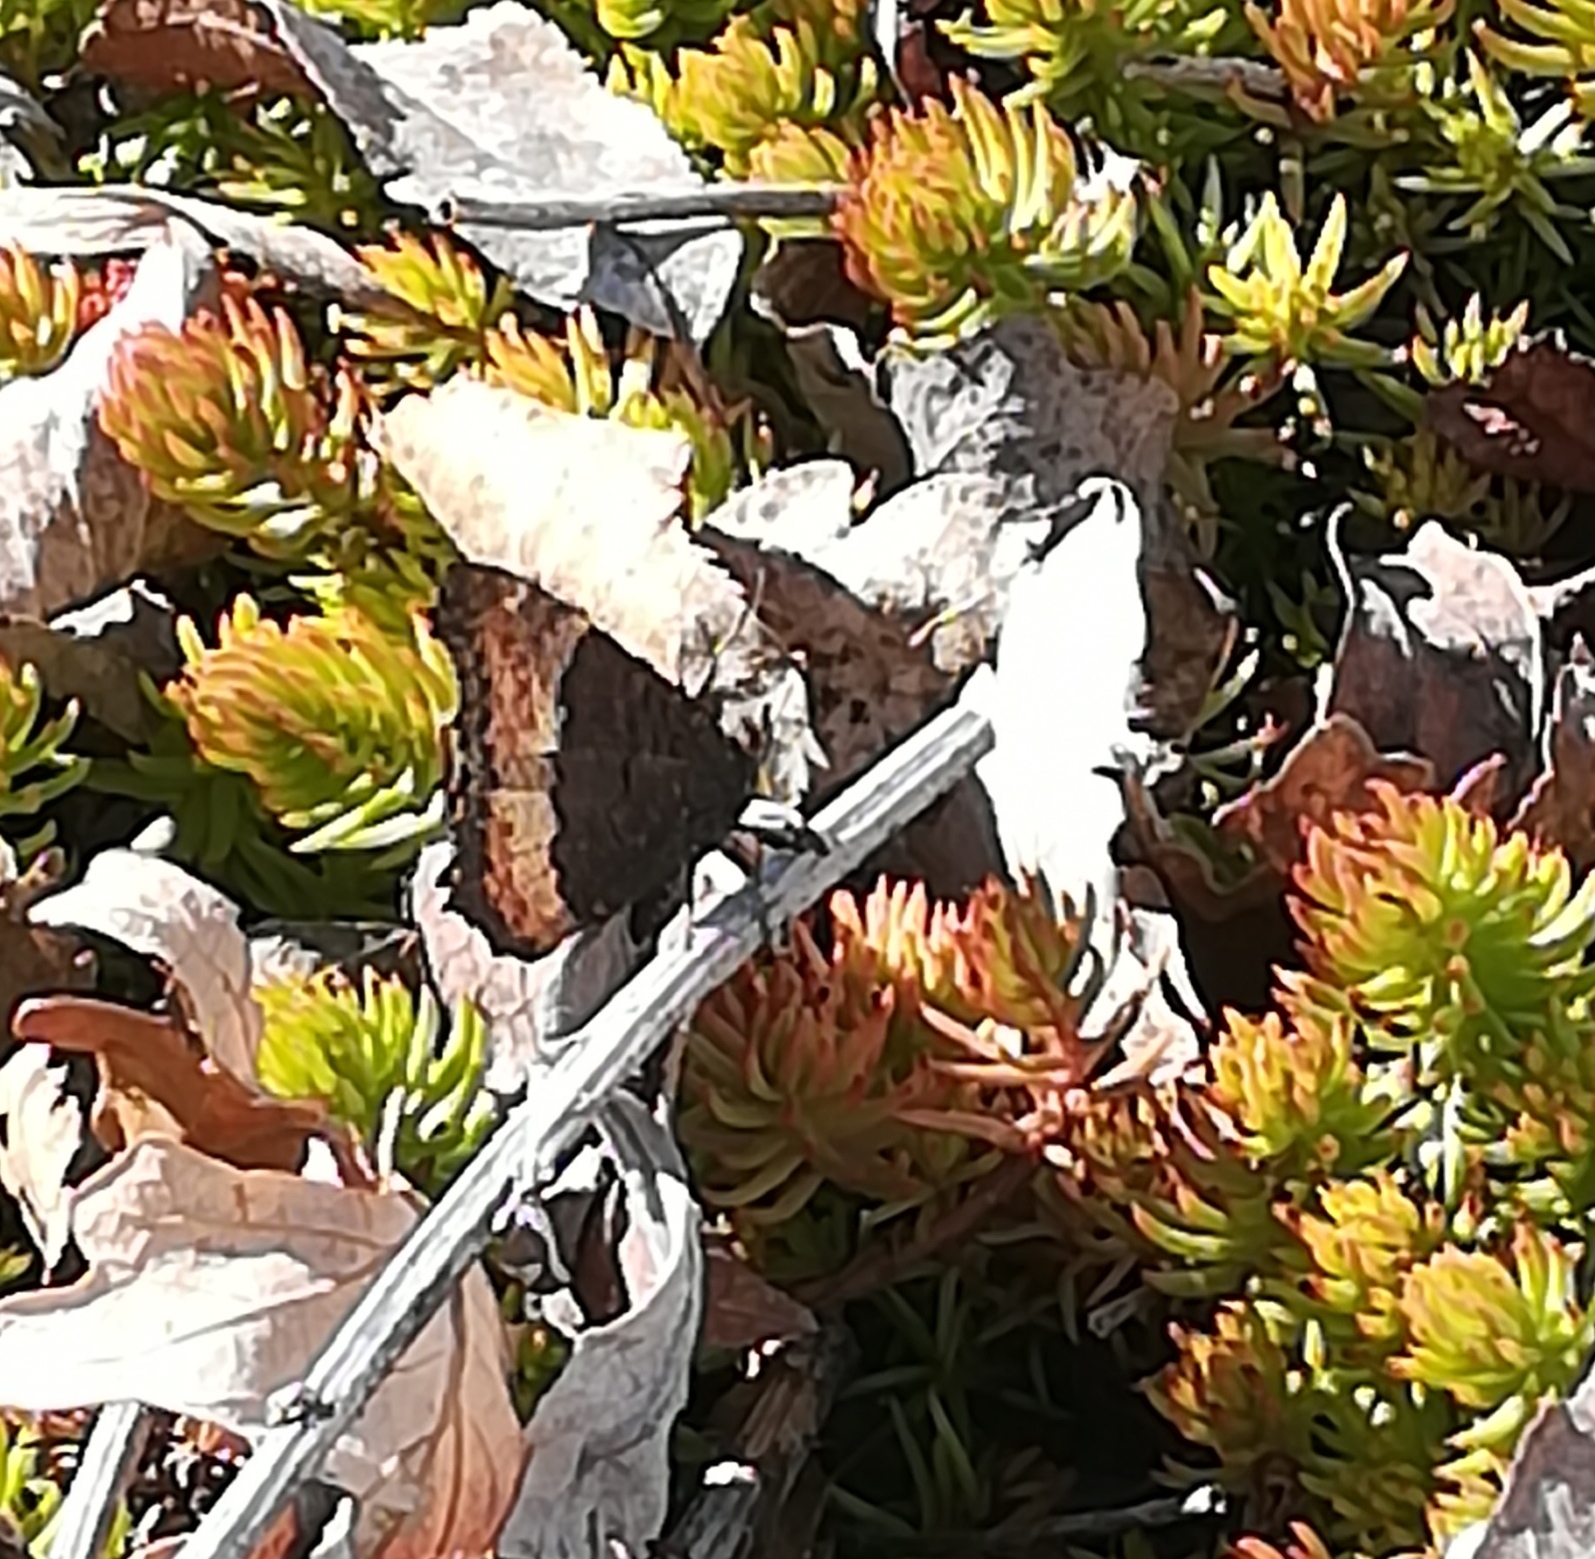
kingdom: Animalia
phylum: Arthropoda
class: Insecta
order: Lepidoptera
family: Nymphalidae
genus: Aglais
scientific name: Aglais milberti
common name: Milbert's tortoiseshell
